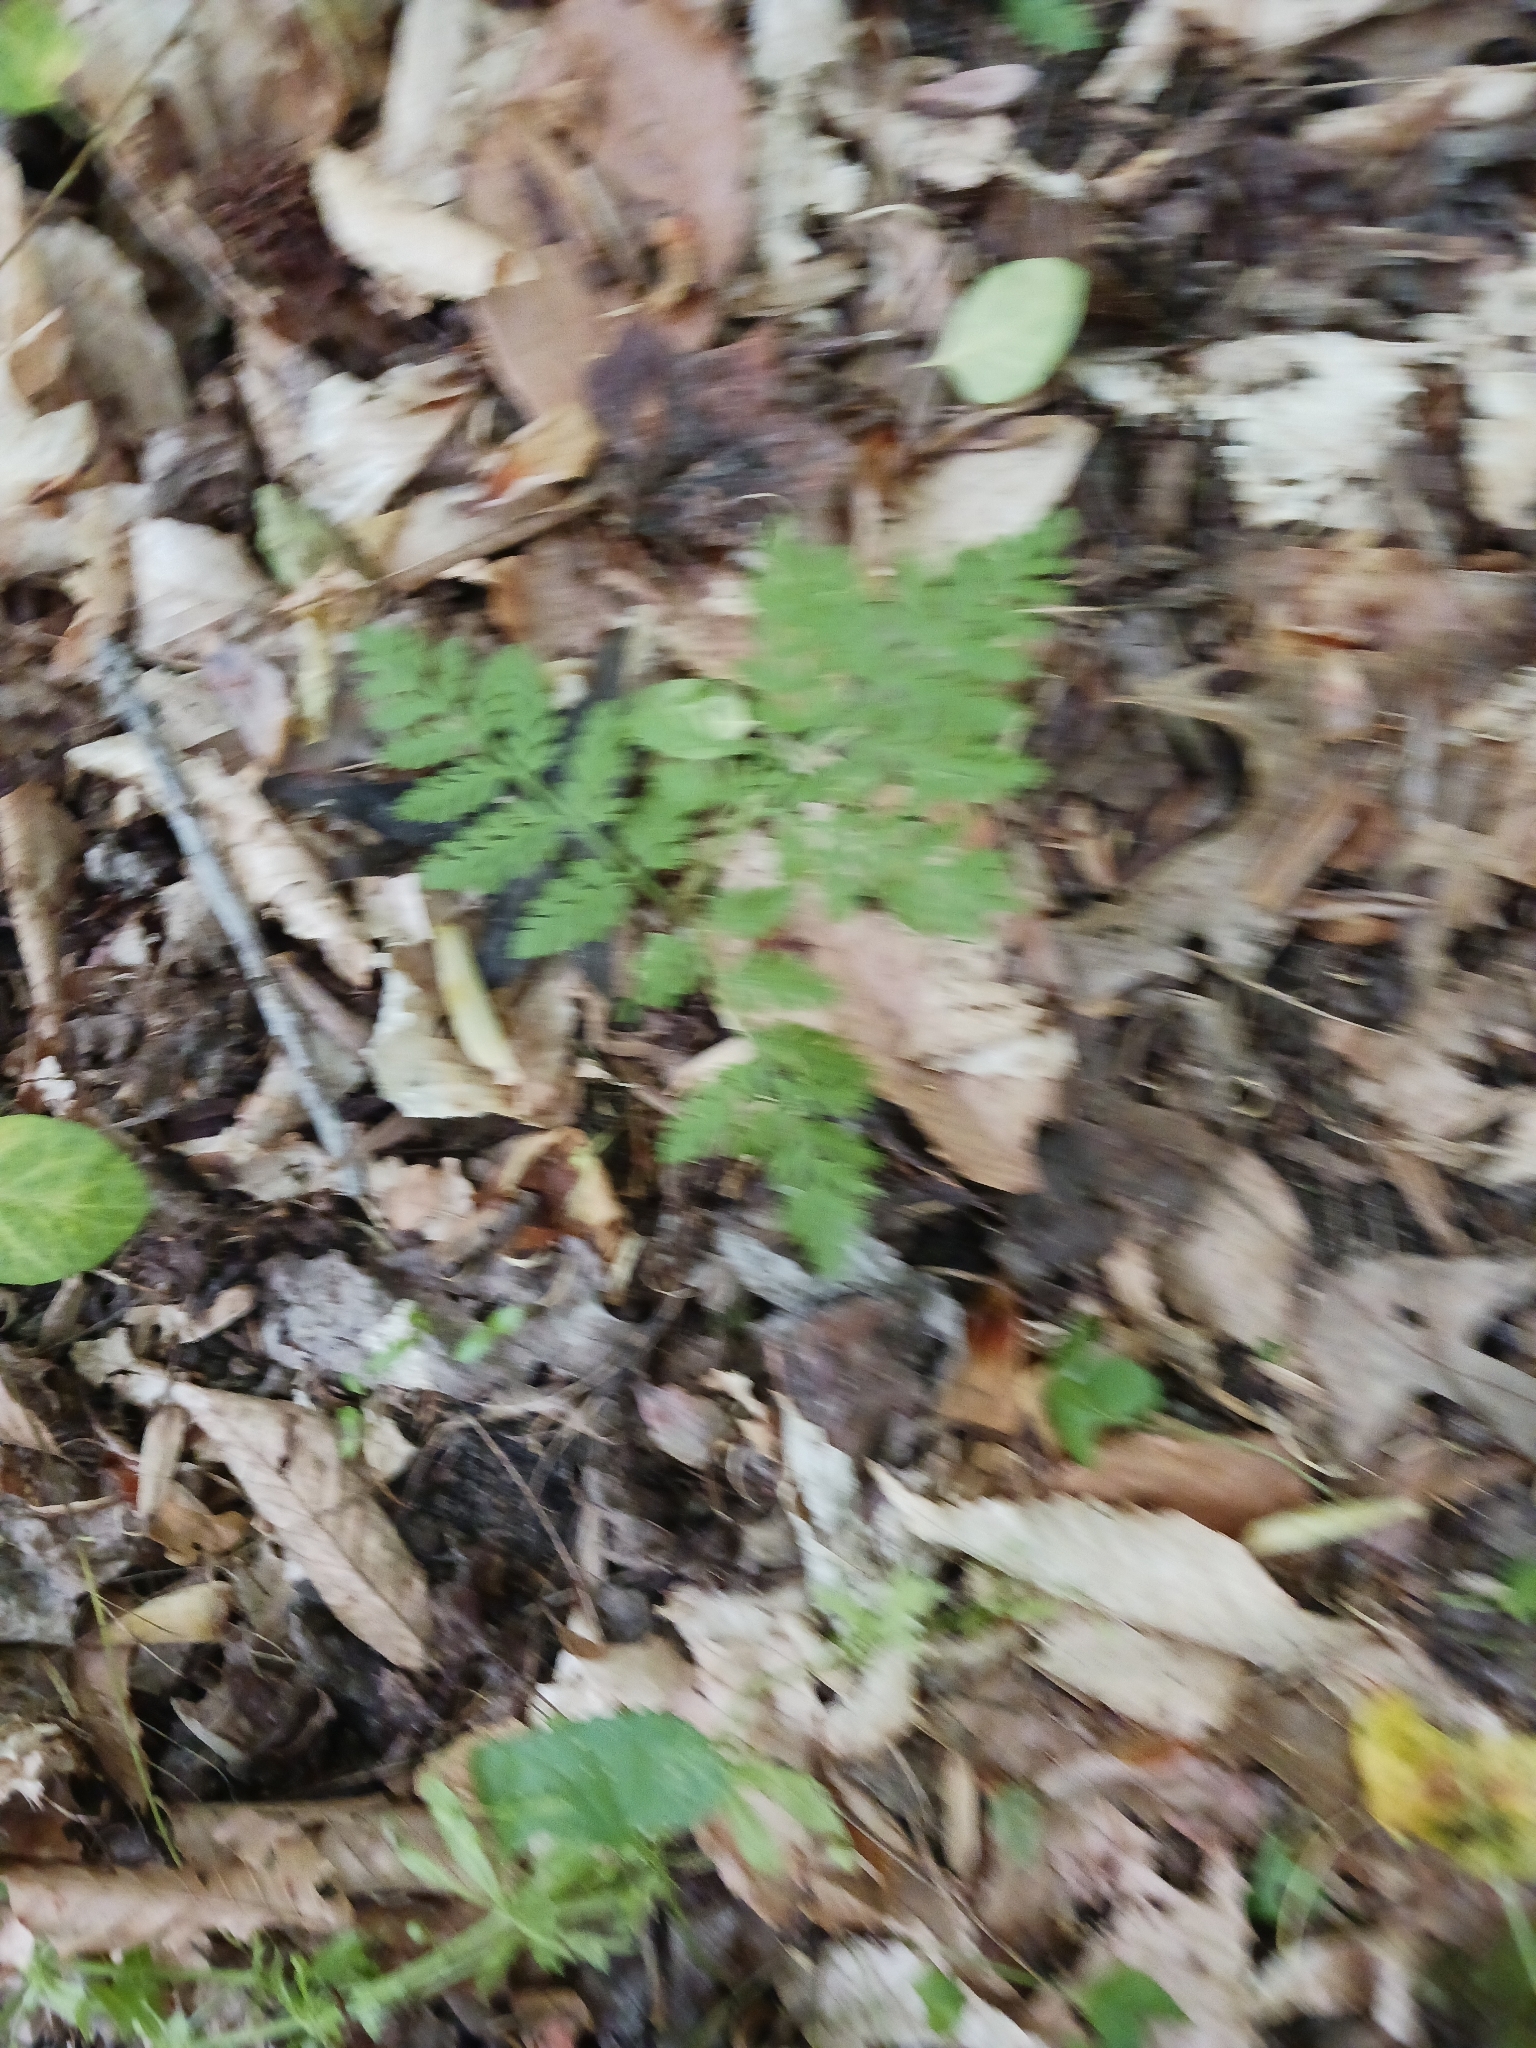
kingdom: Plantae
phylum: Tracheophyta
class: Polypodiopsida
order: Ophioglossales
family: Ophioglossaceae
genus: Botrypus
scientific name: Botrypus virginianus
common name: Common grapefern
